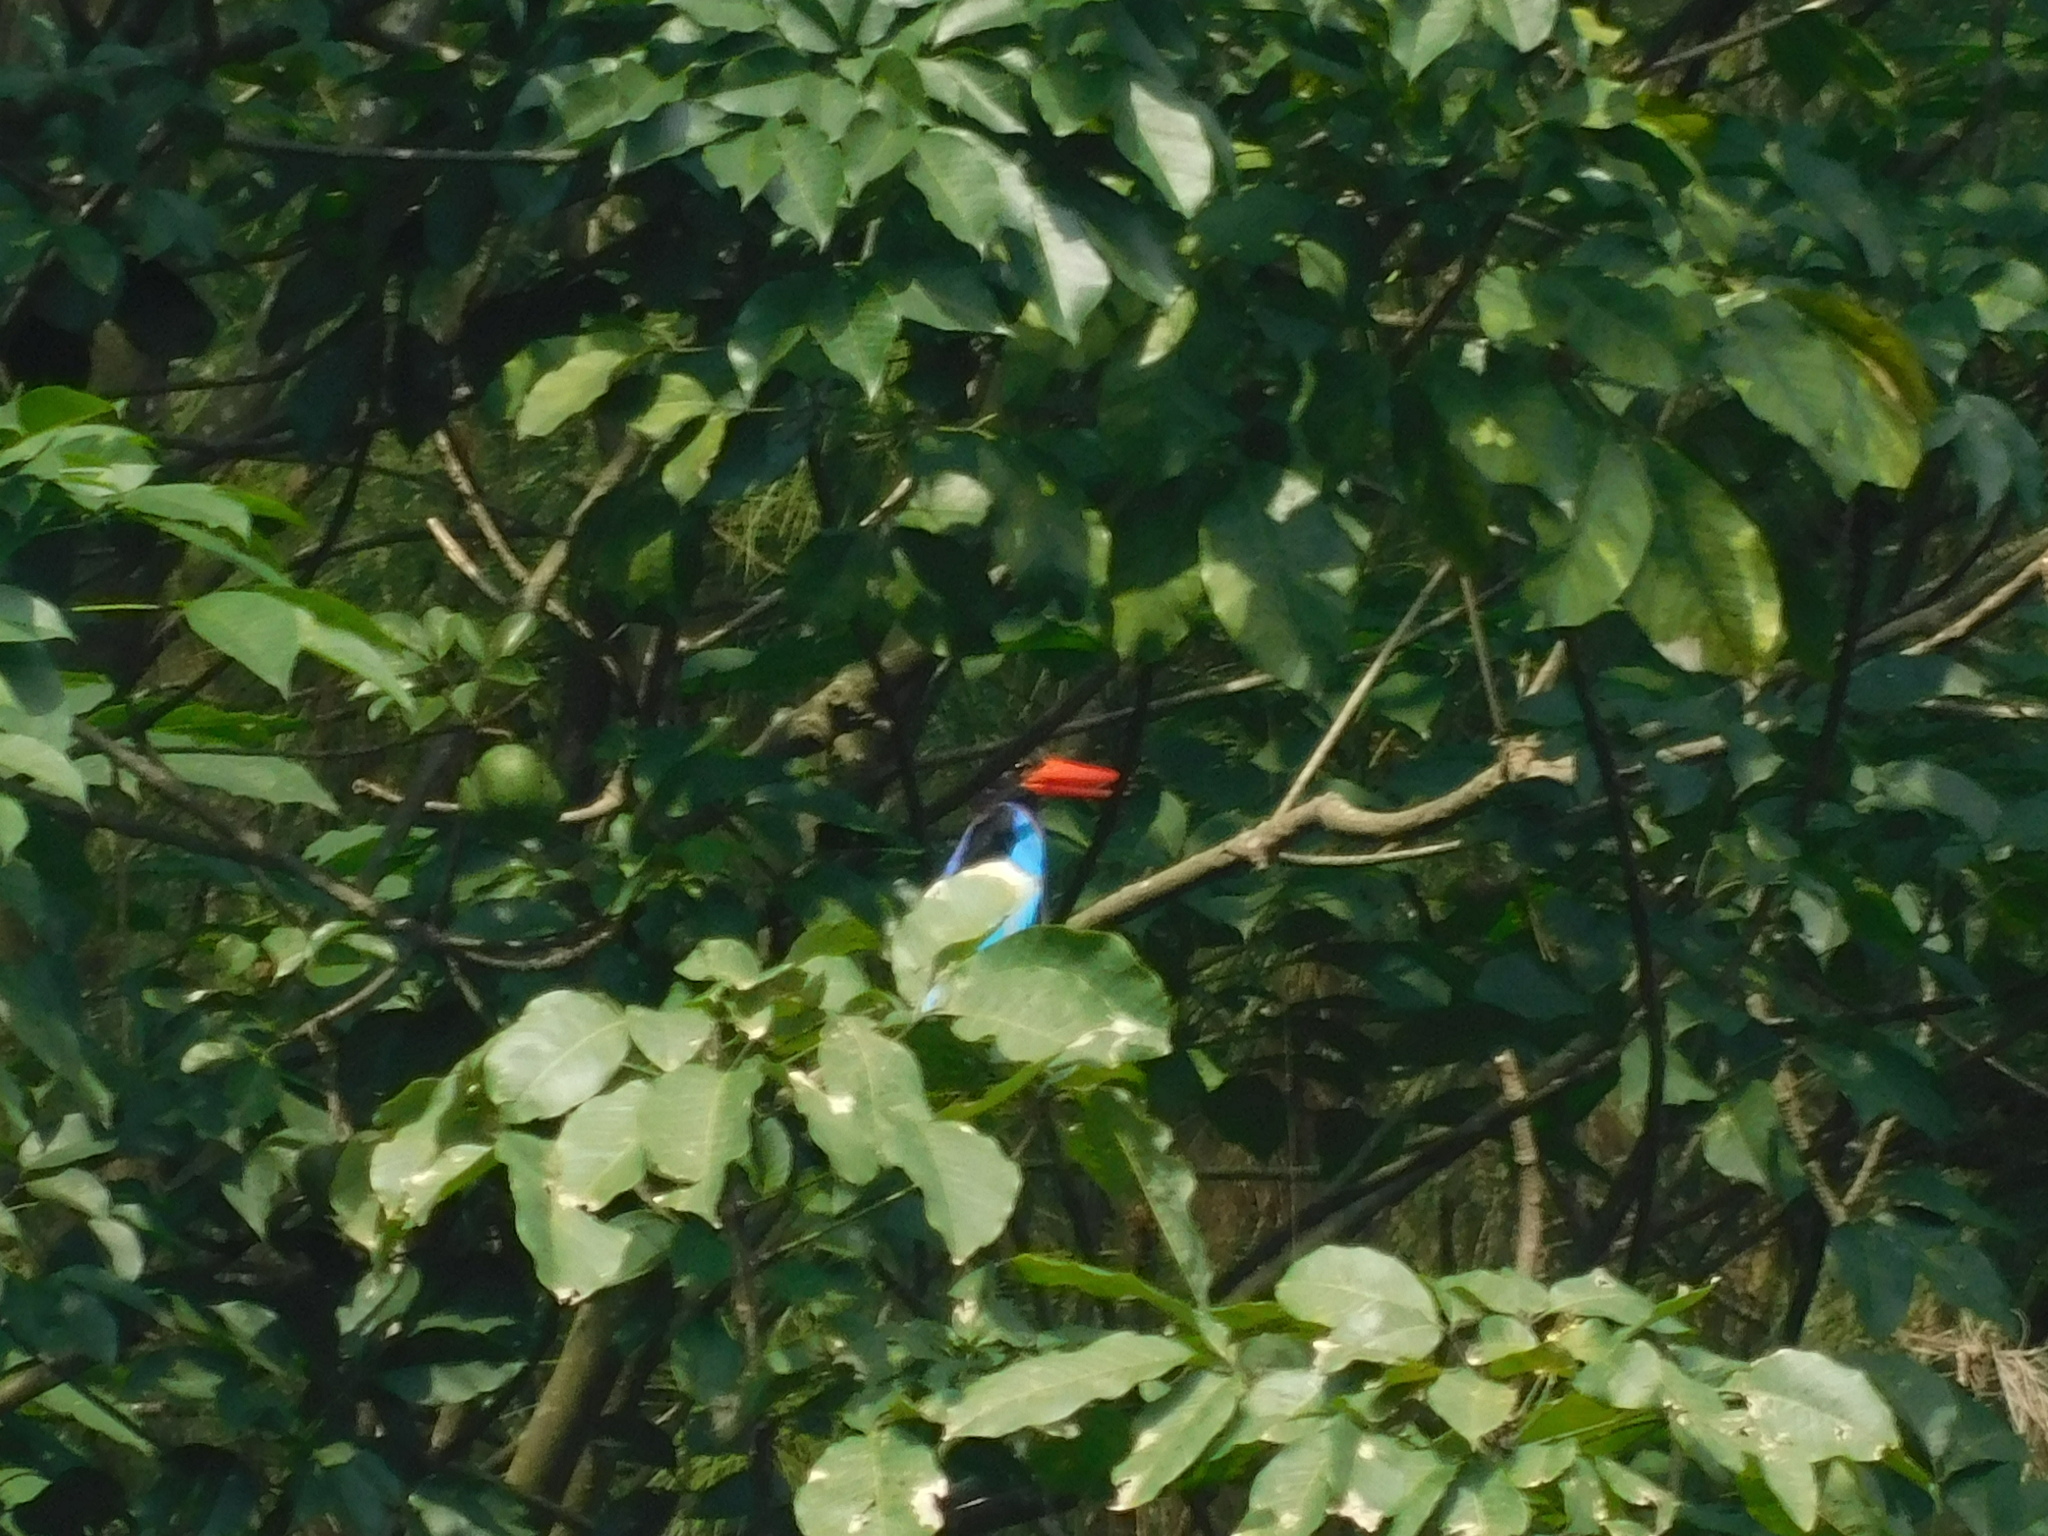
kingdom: Animalia
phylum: Chordata
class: Aves
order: Coraciiformes
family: Alcedinidae
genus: Halcyon
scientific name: Halcyon cyanoventris
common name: Javan kingfisher
